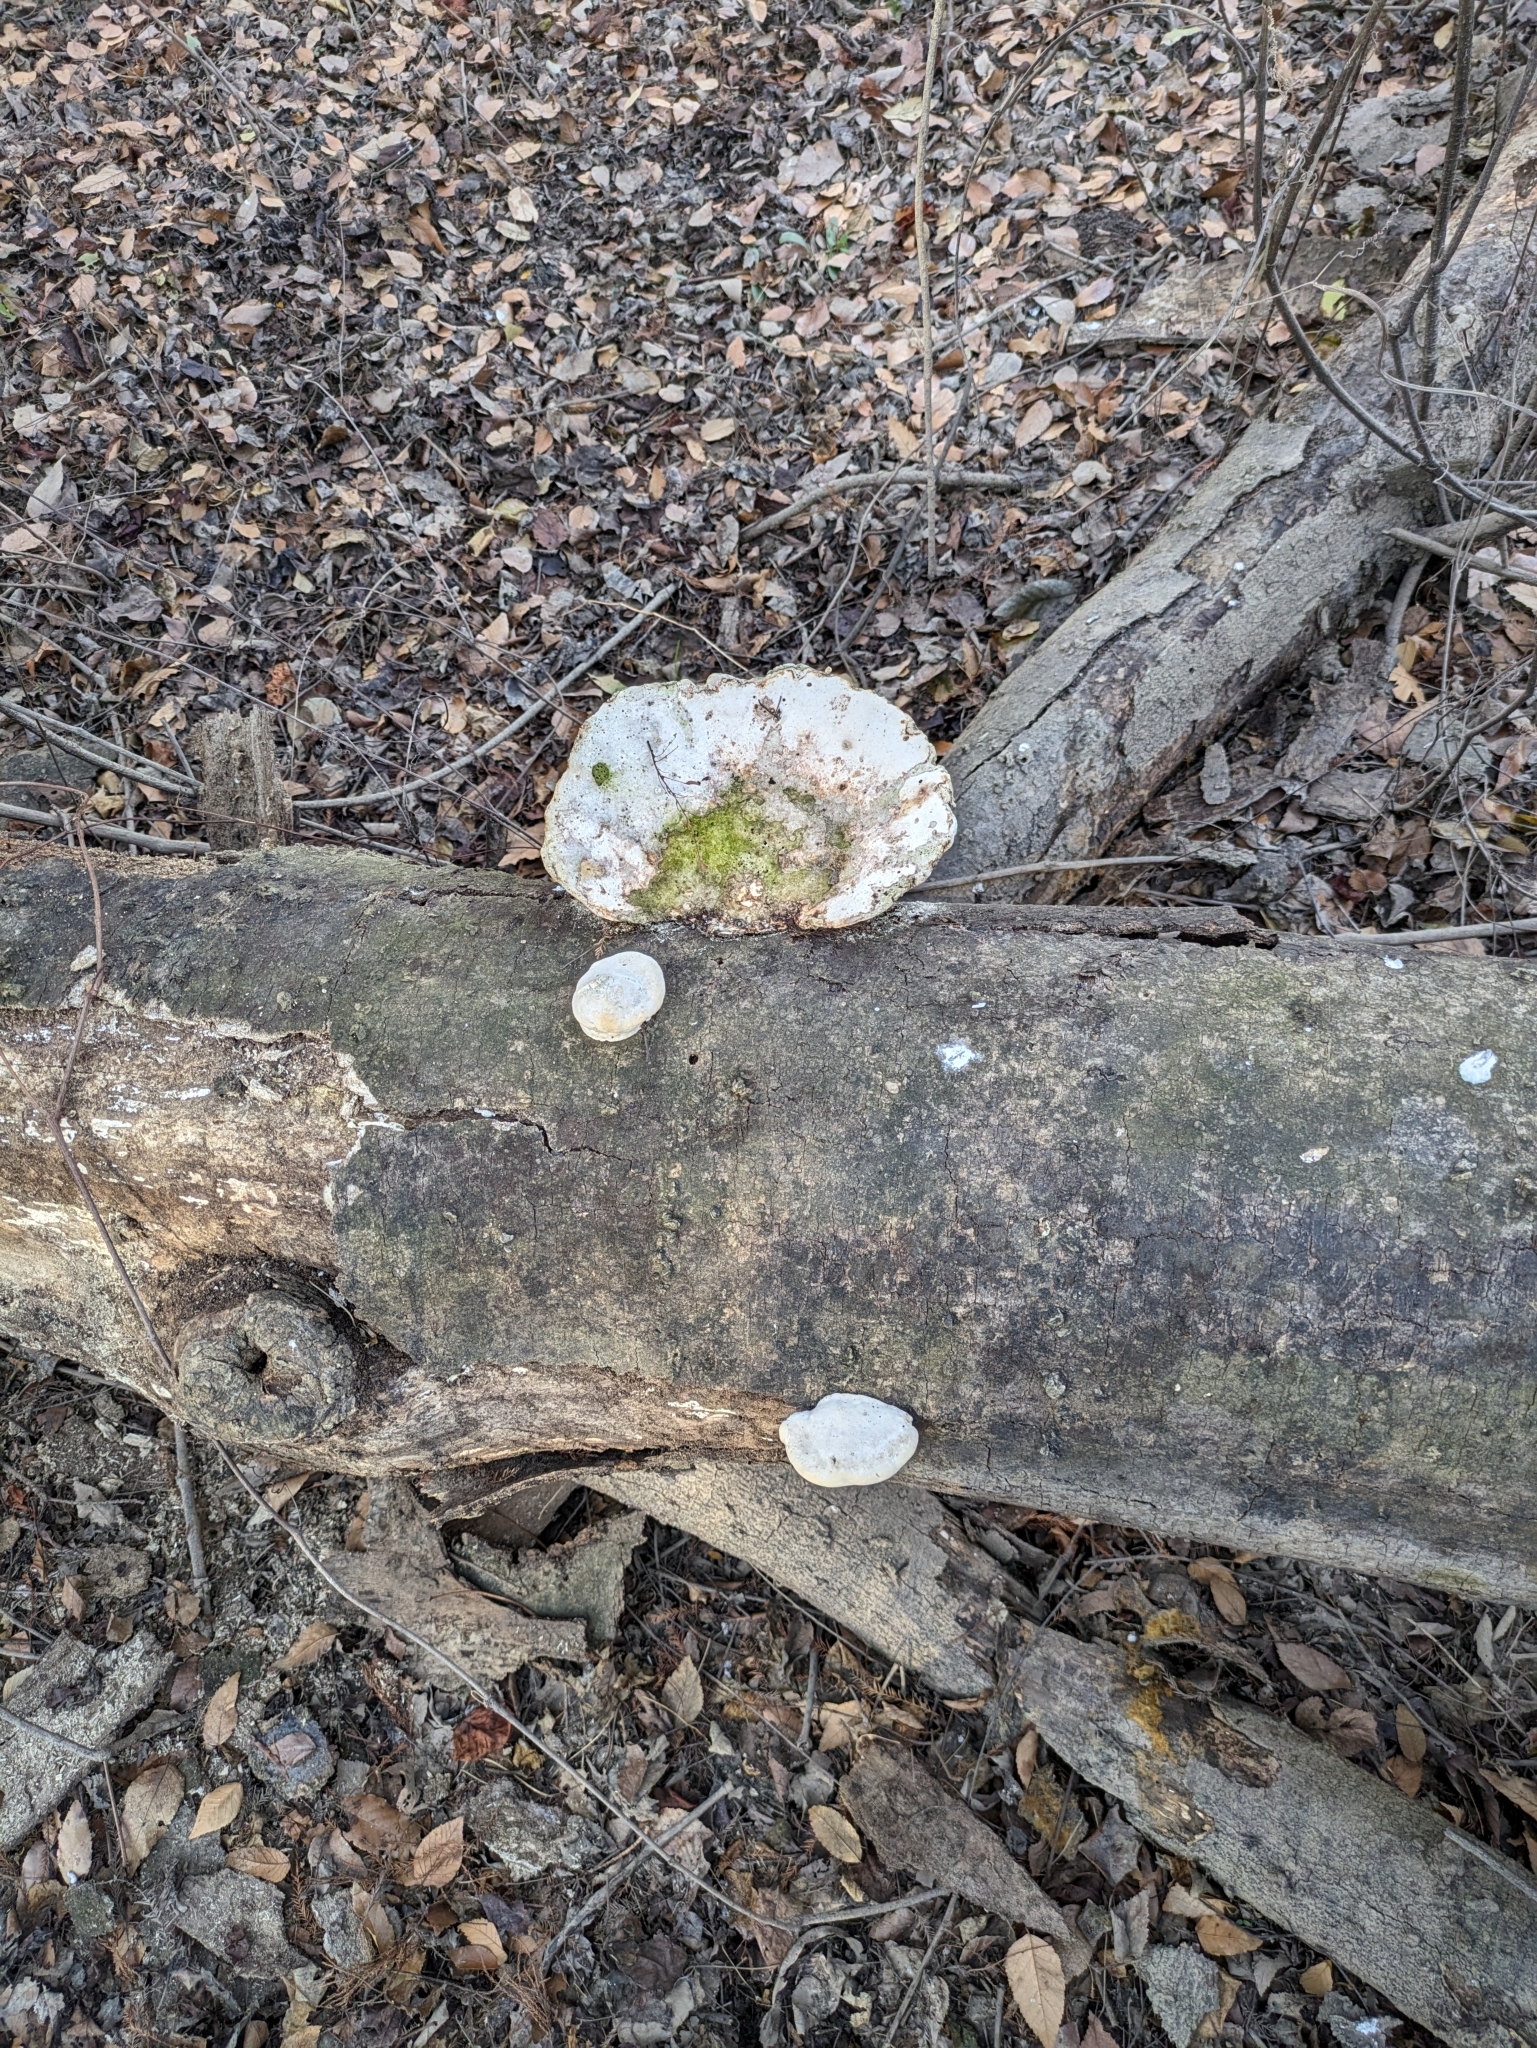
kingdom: Fungi
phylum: Basidiomycota
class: Agaricomycetes
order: Polyporales
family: Polyporaceae
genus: Trametes
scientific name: Trametes
